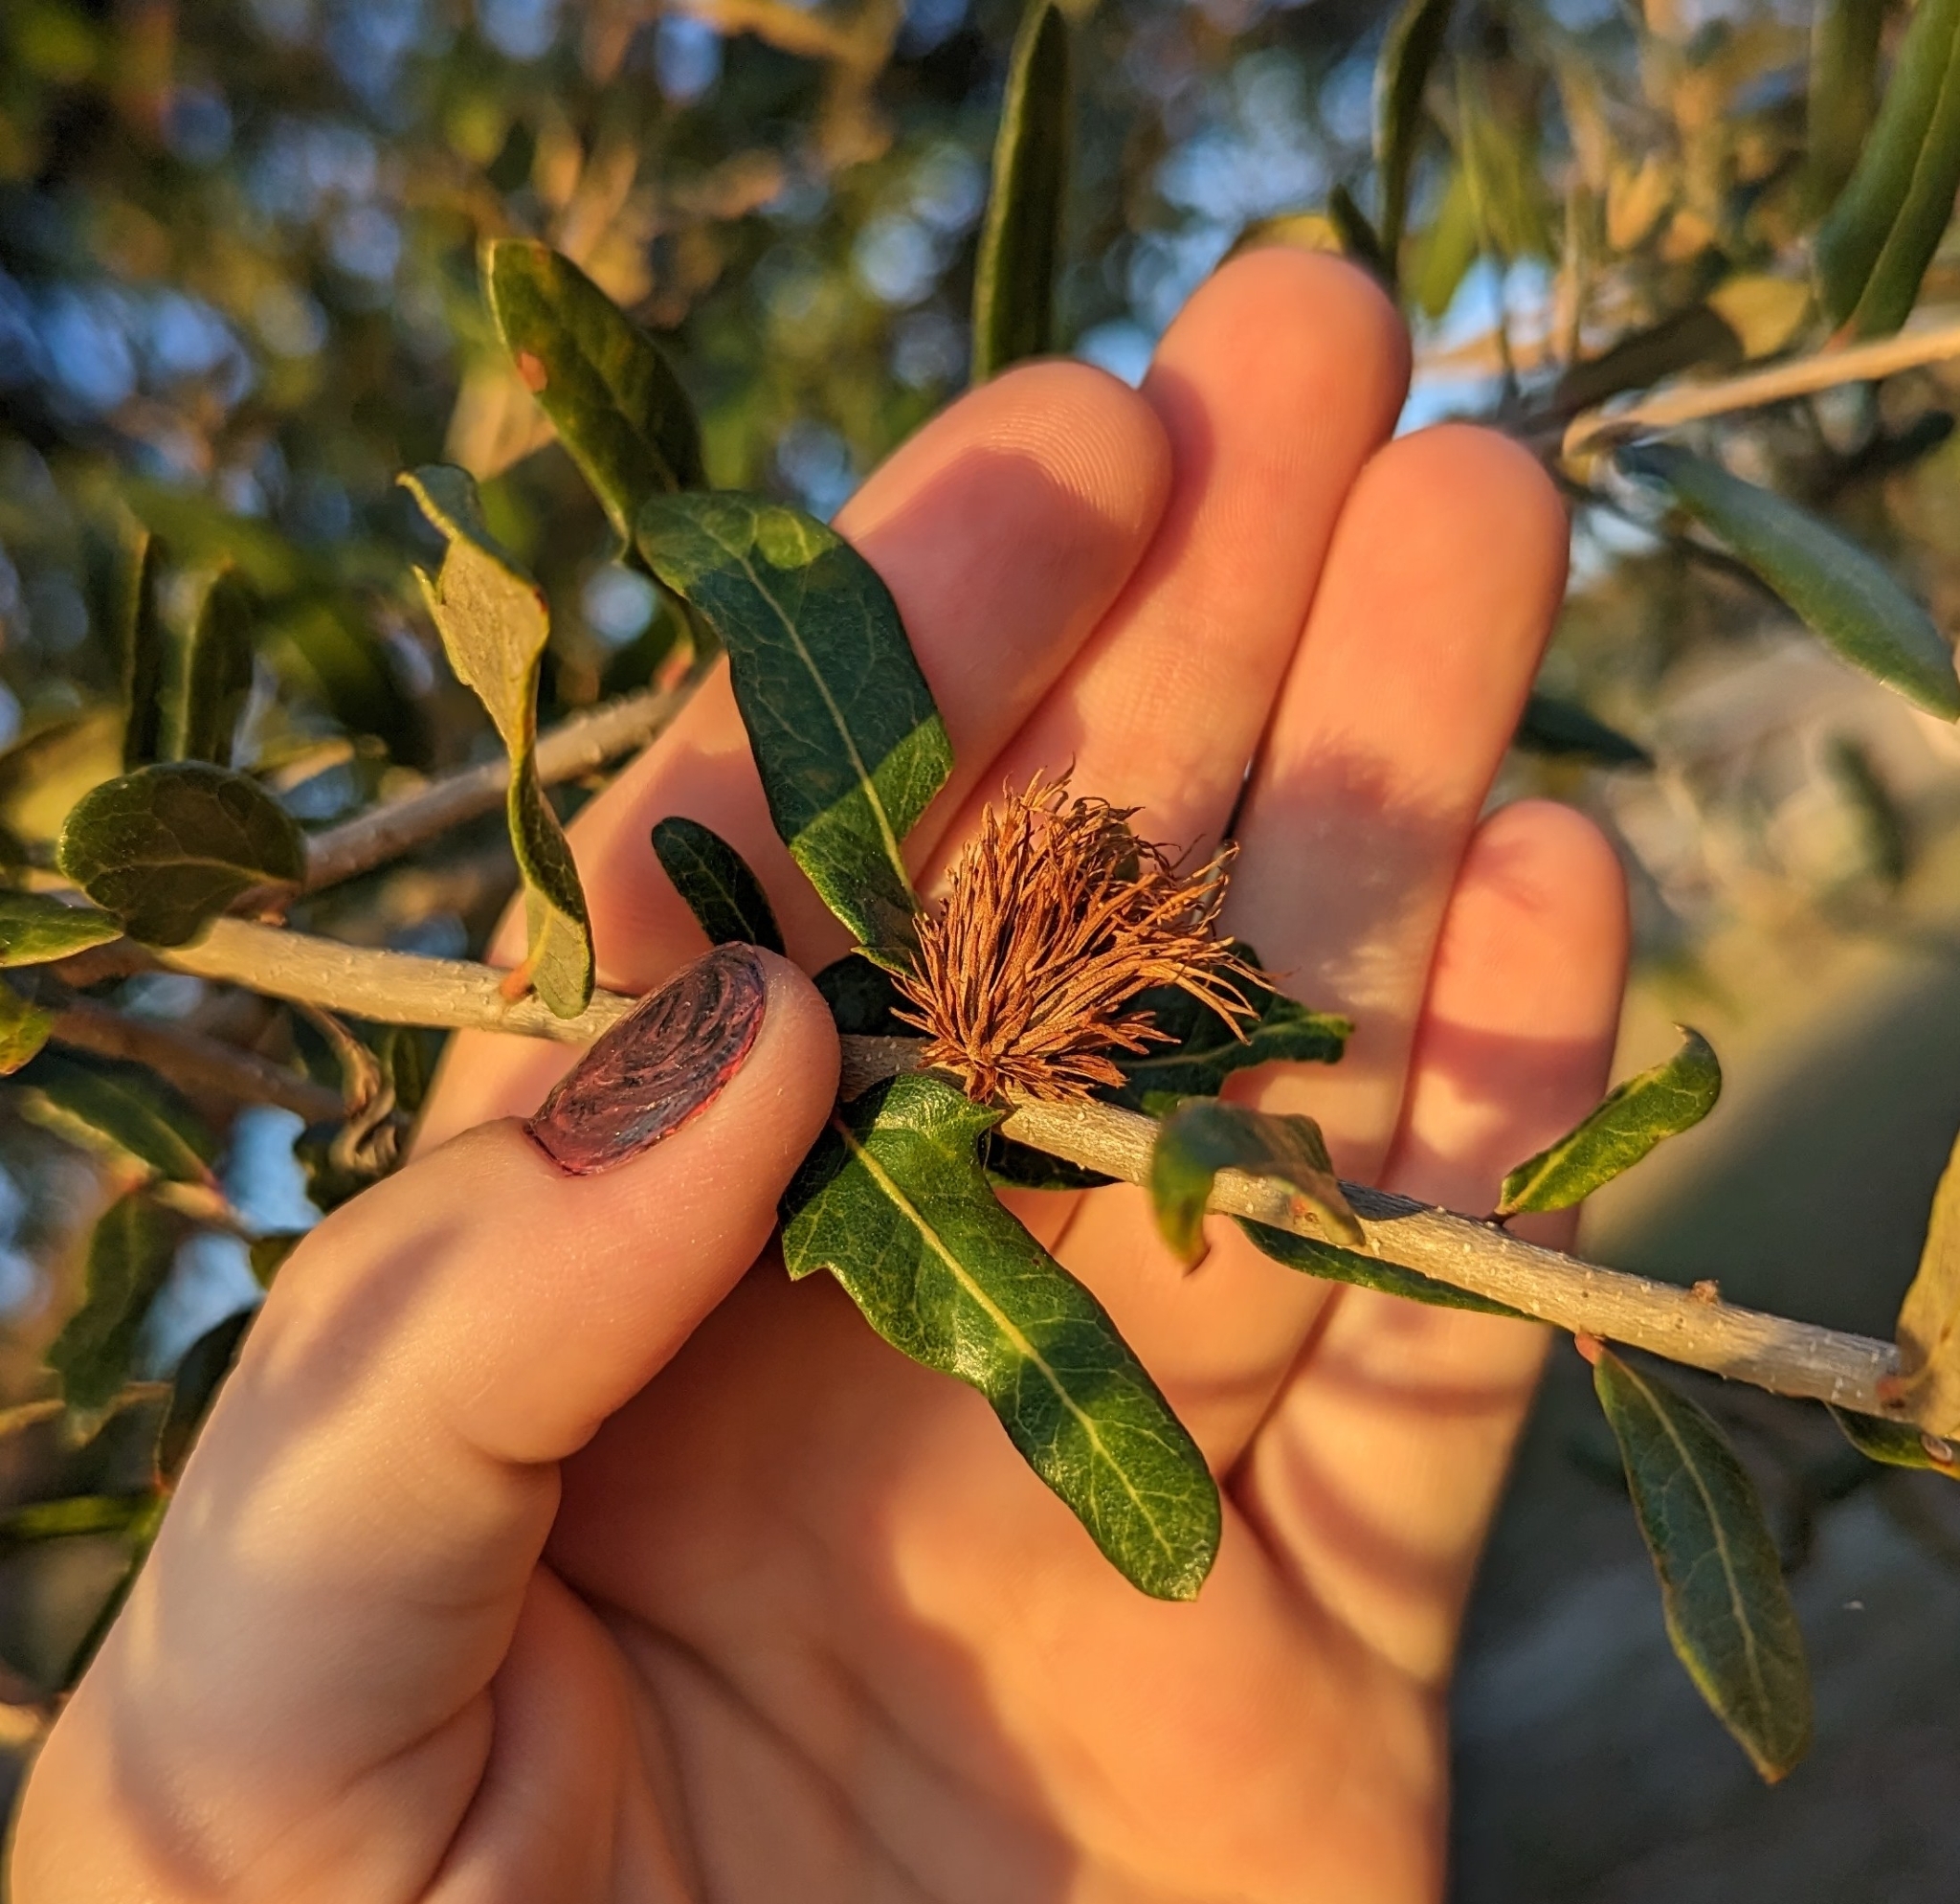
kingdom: Animalia
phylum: Arthropoda
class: Insecta
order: Hymenoptera
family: Cynipidae
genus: Andricus
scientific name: Andricus quercusfoliatus
